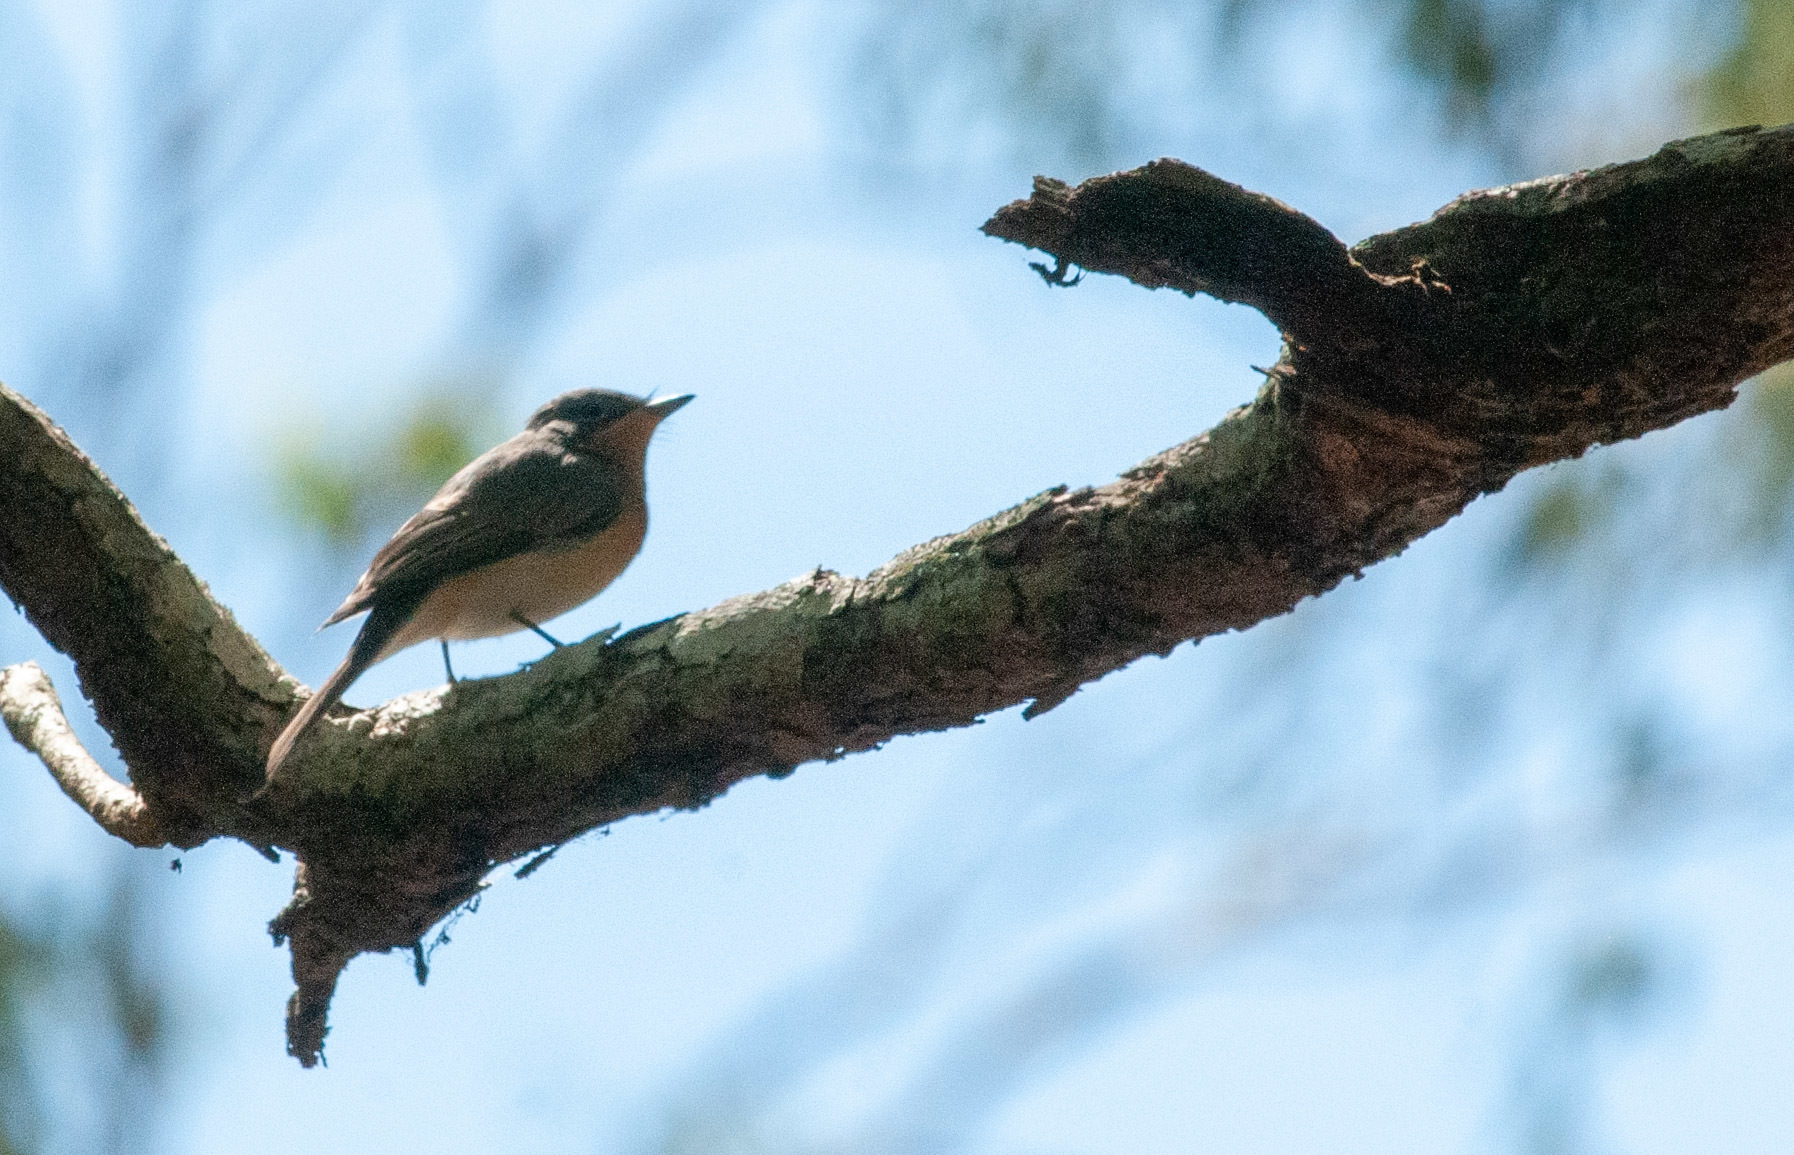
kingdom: Animalia
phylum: Chordata
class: Aves
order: Passeriformes
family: Monarchidae
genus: Myiagra
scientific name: Myiagra rubecula
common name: Leaden flycatcher
